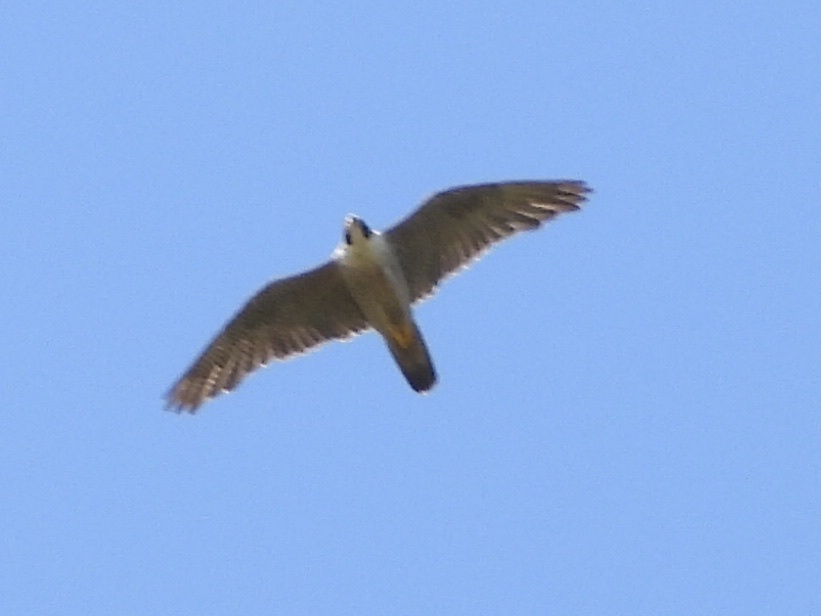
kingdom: Animalia
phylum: Chordata
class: Aves
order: Falconiformes
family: Falconidae
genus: Falco
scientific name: Falco peregrinus
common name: Peregrine falcon
